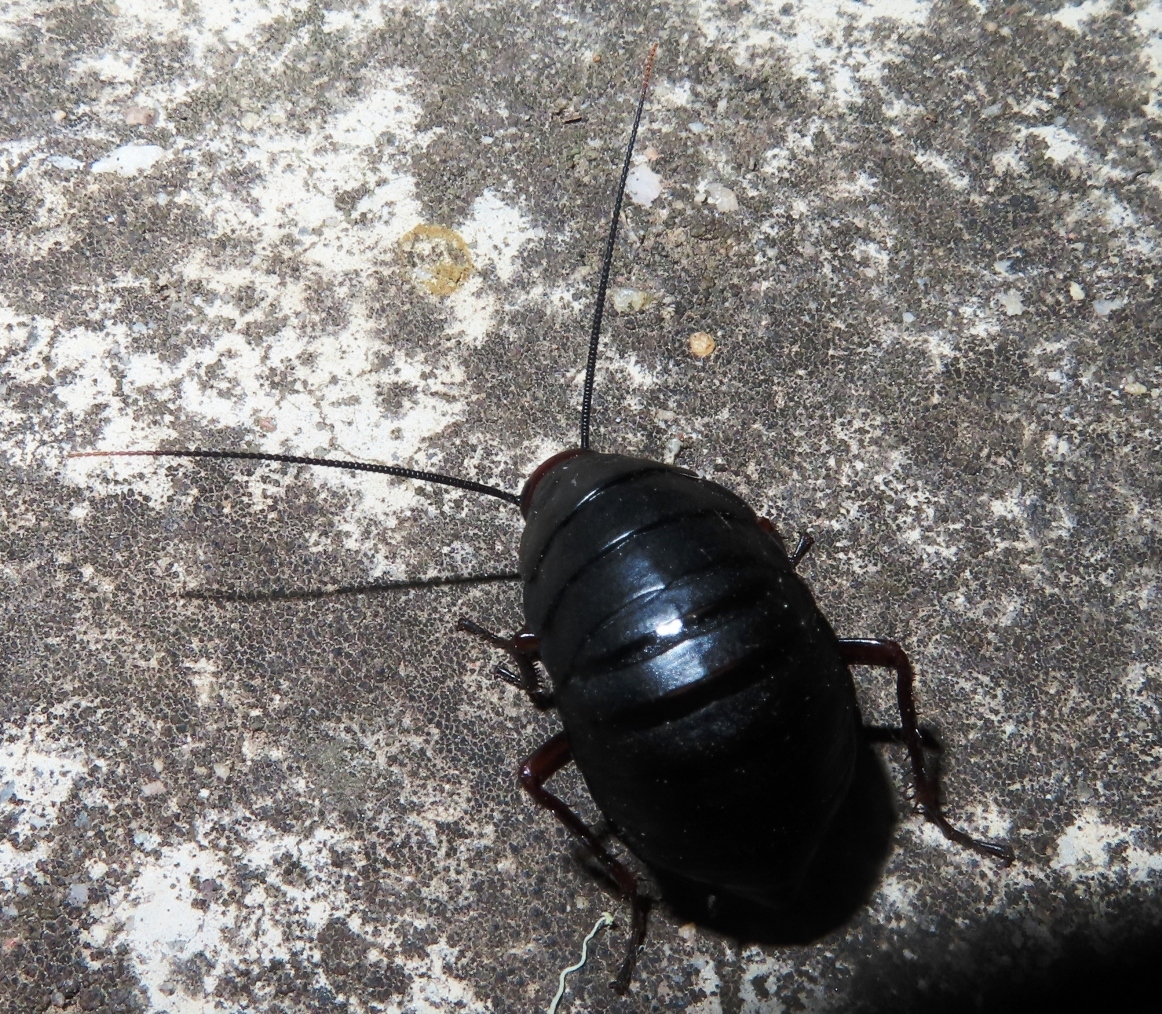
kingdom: Animalia
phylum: Arthropoda
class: Insecta
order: Blattodea
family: Blattidae
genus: Deropeltis
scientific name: Deropeltis erythrocephala
